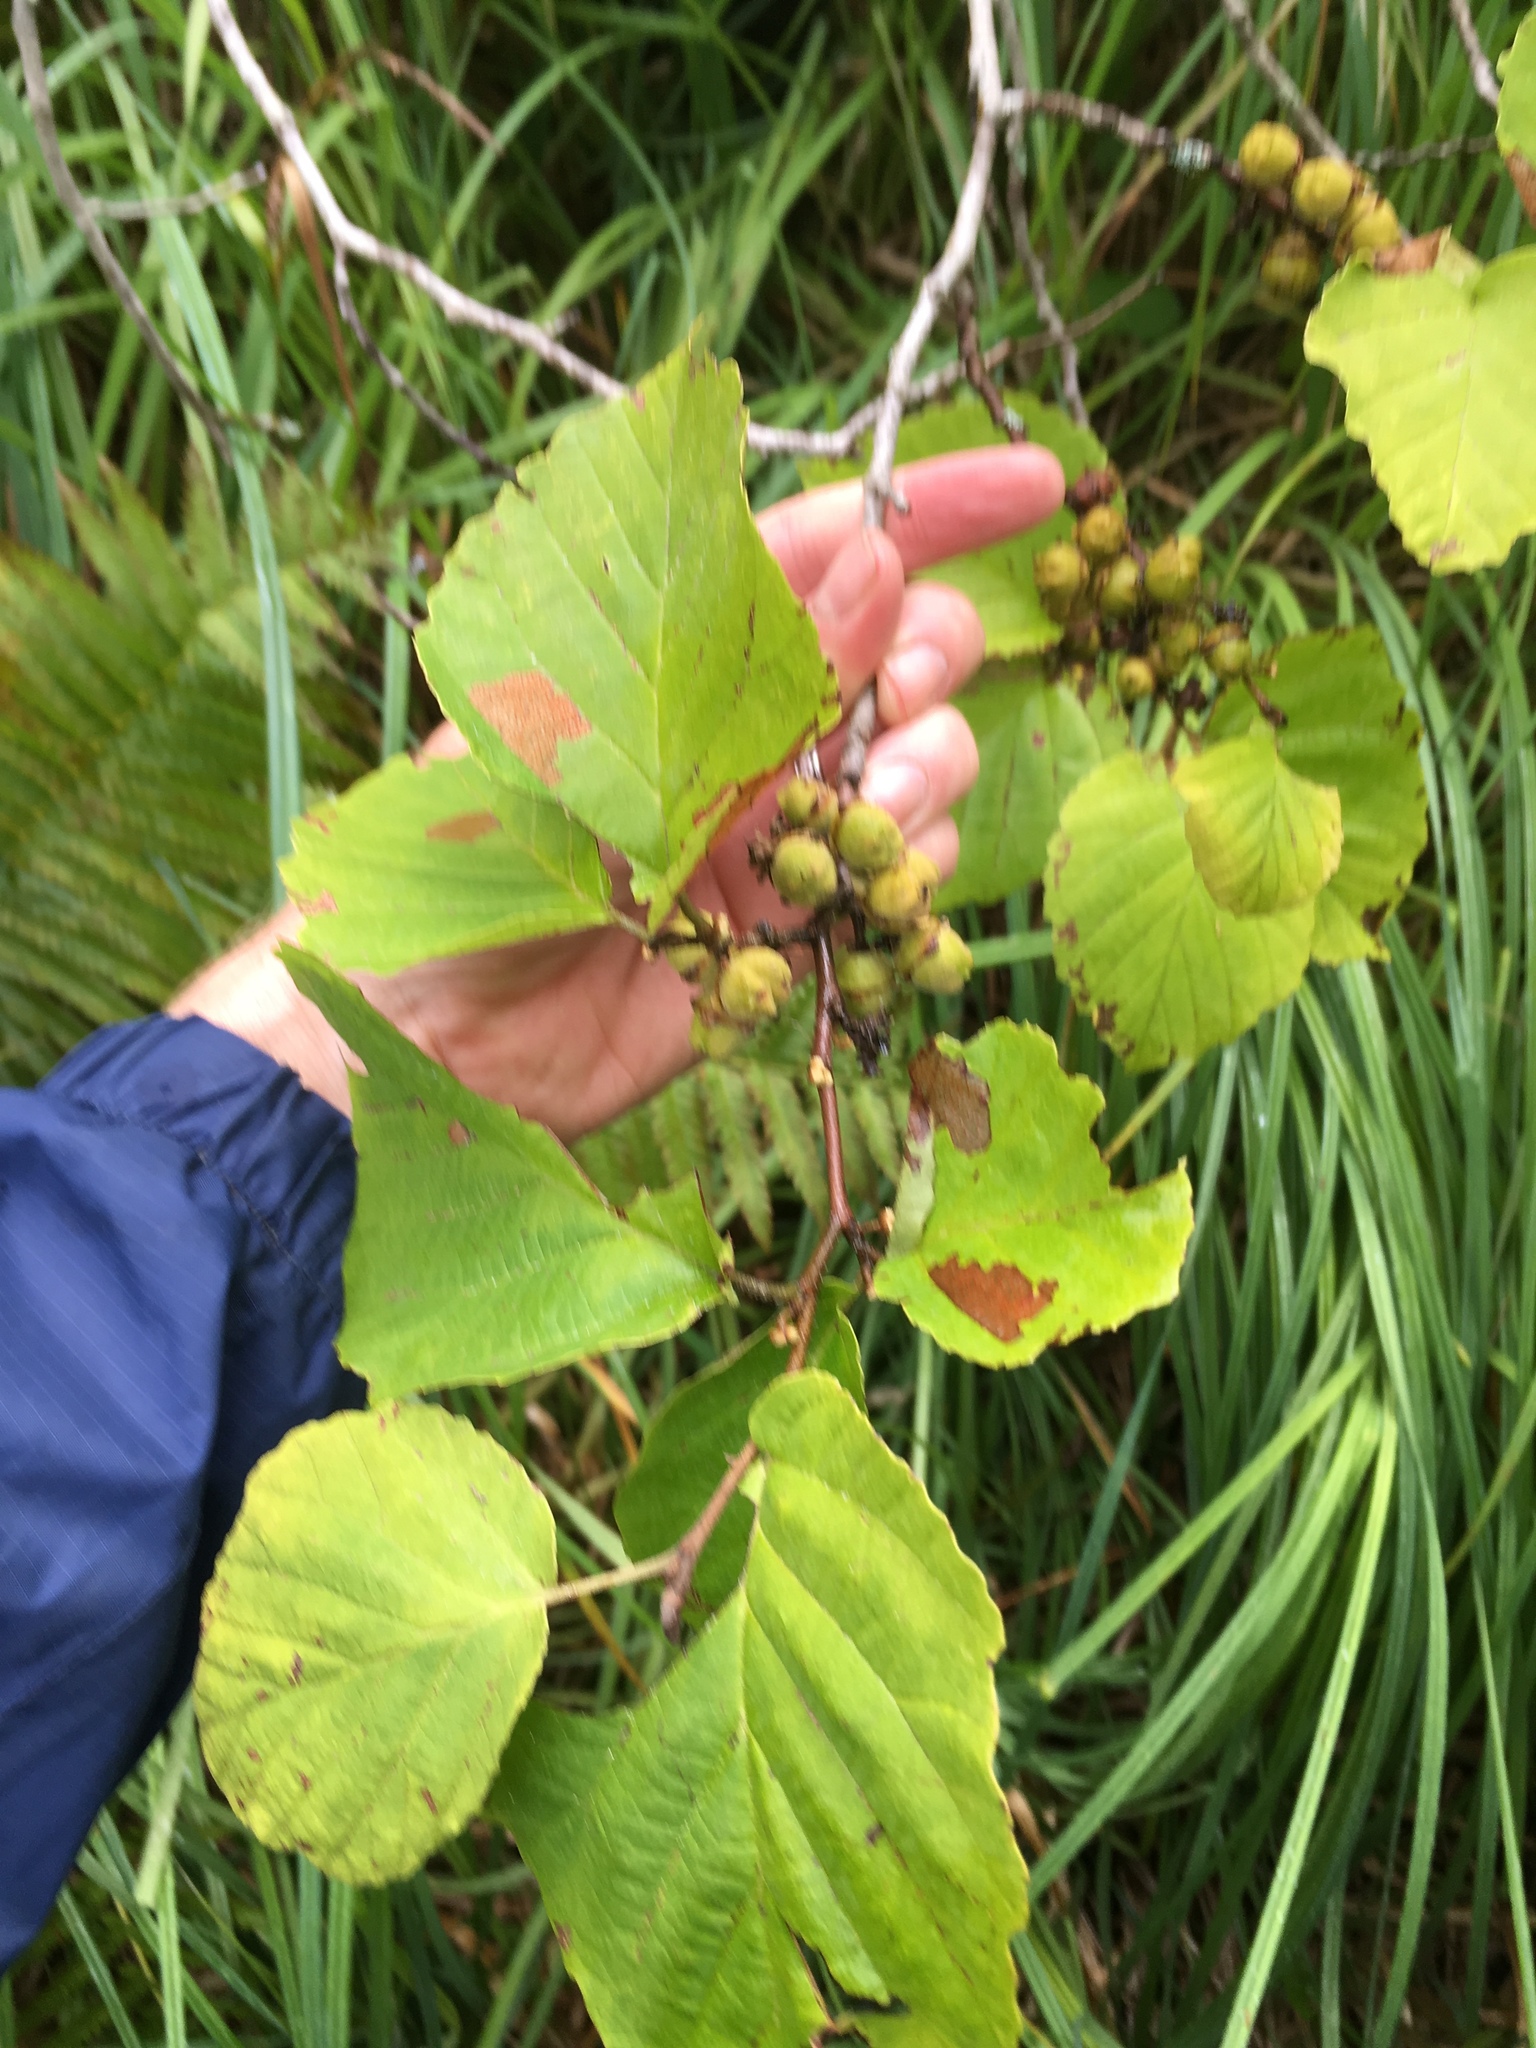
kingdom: Plantae
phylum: Tracheophyta
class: Magnoliopsida
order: Saxifragales
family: Hamamelidaceae
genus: Hamamelis
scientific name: Hamamelis virginiana
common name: Witch-hazel
